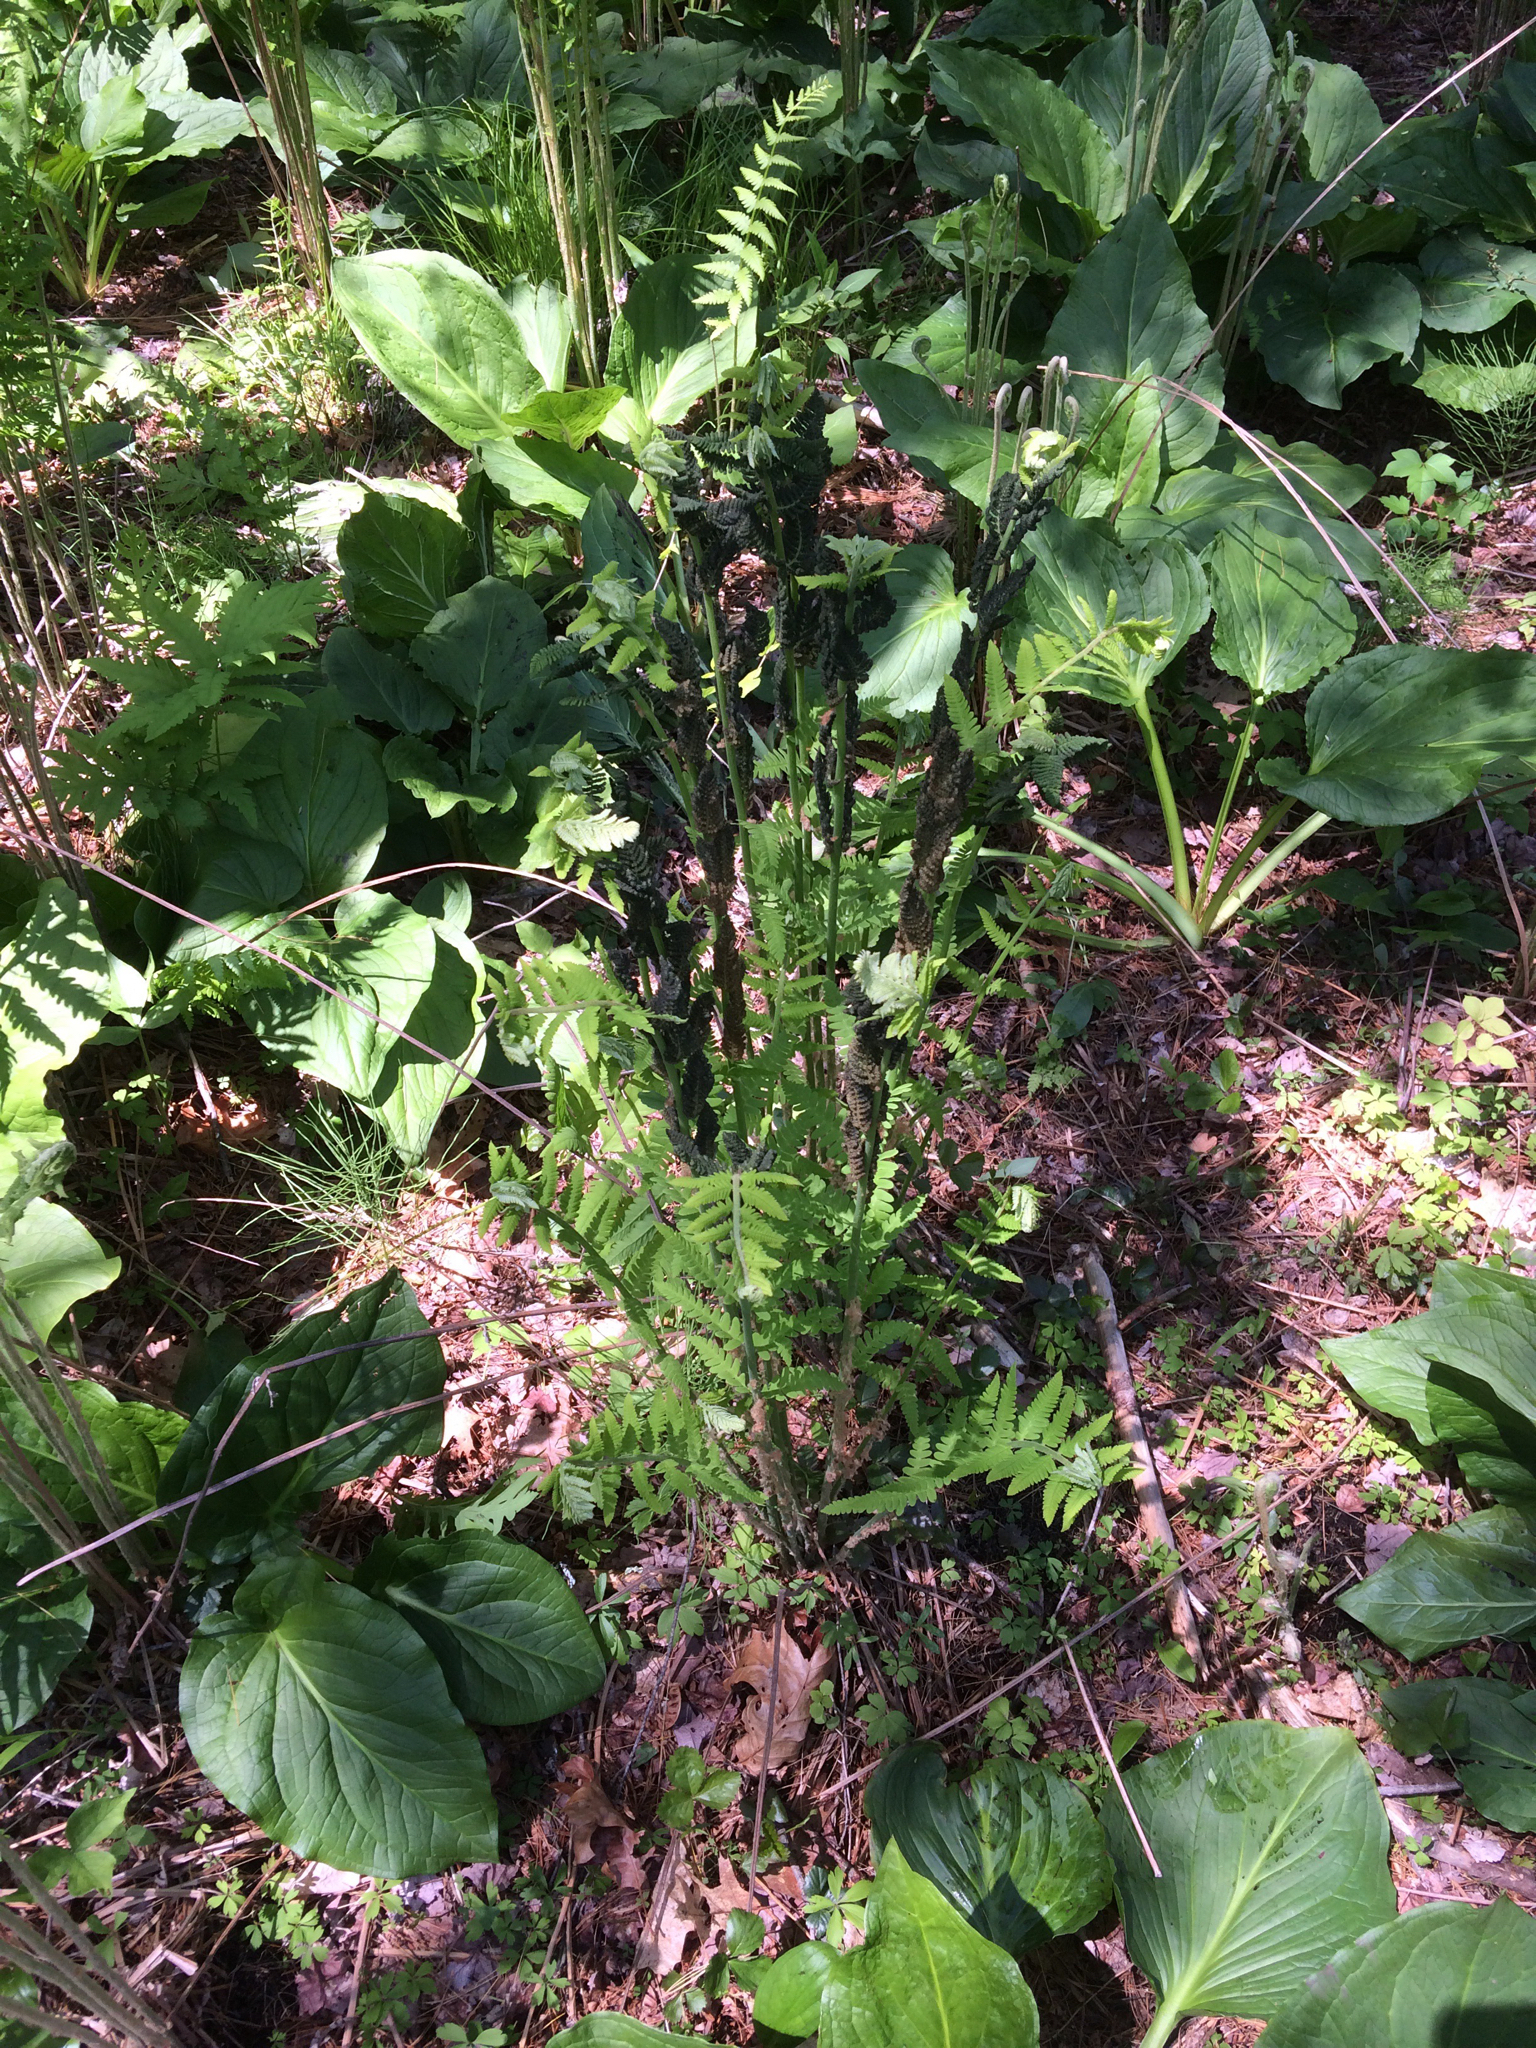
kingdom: Plantae
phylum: Tracheophyta
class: Polypodiopsida
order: Osmundales
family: Osmundaceae
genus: Claytosmunda
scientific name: Claytosmunda claytoniana
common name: Clayton's fern
